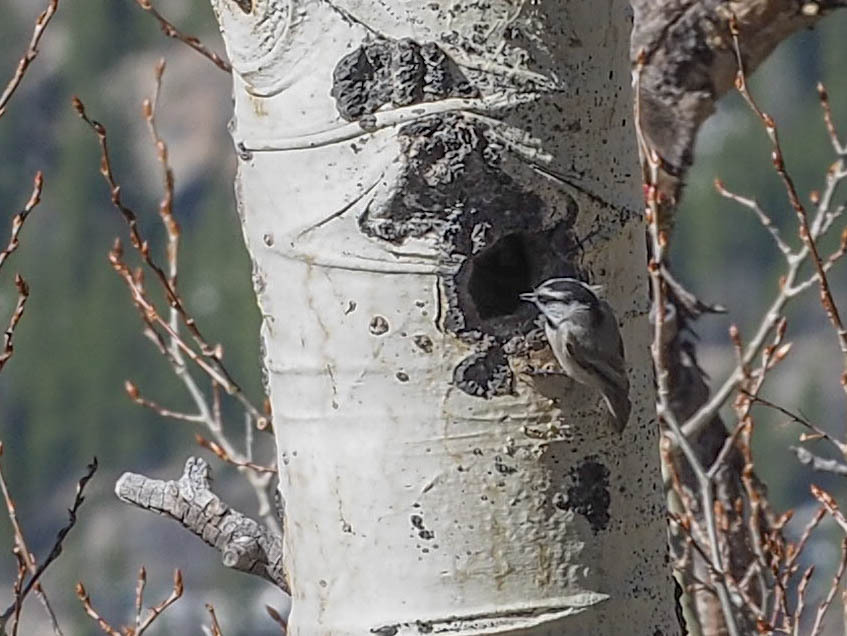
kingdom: Animalia
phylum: Chordata
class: Aves
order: Passeriformes
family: Paridae
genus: Poecile
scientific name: Poecile gambeli
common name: Mountain chickadee
